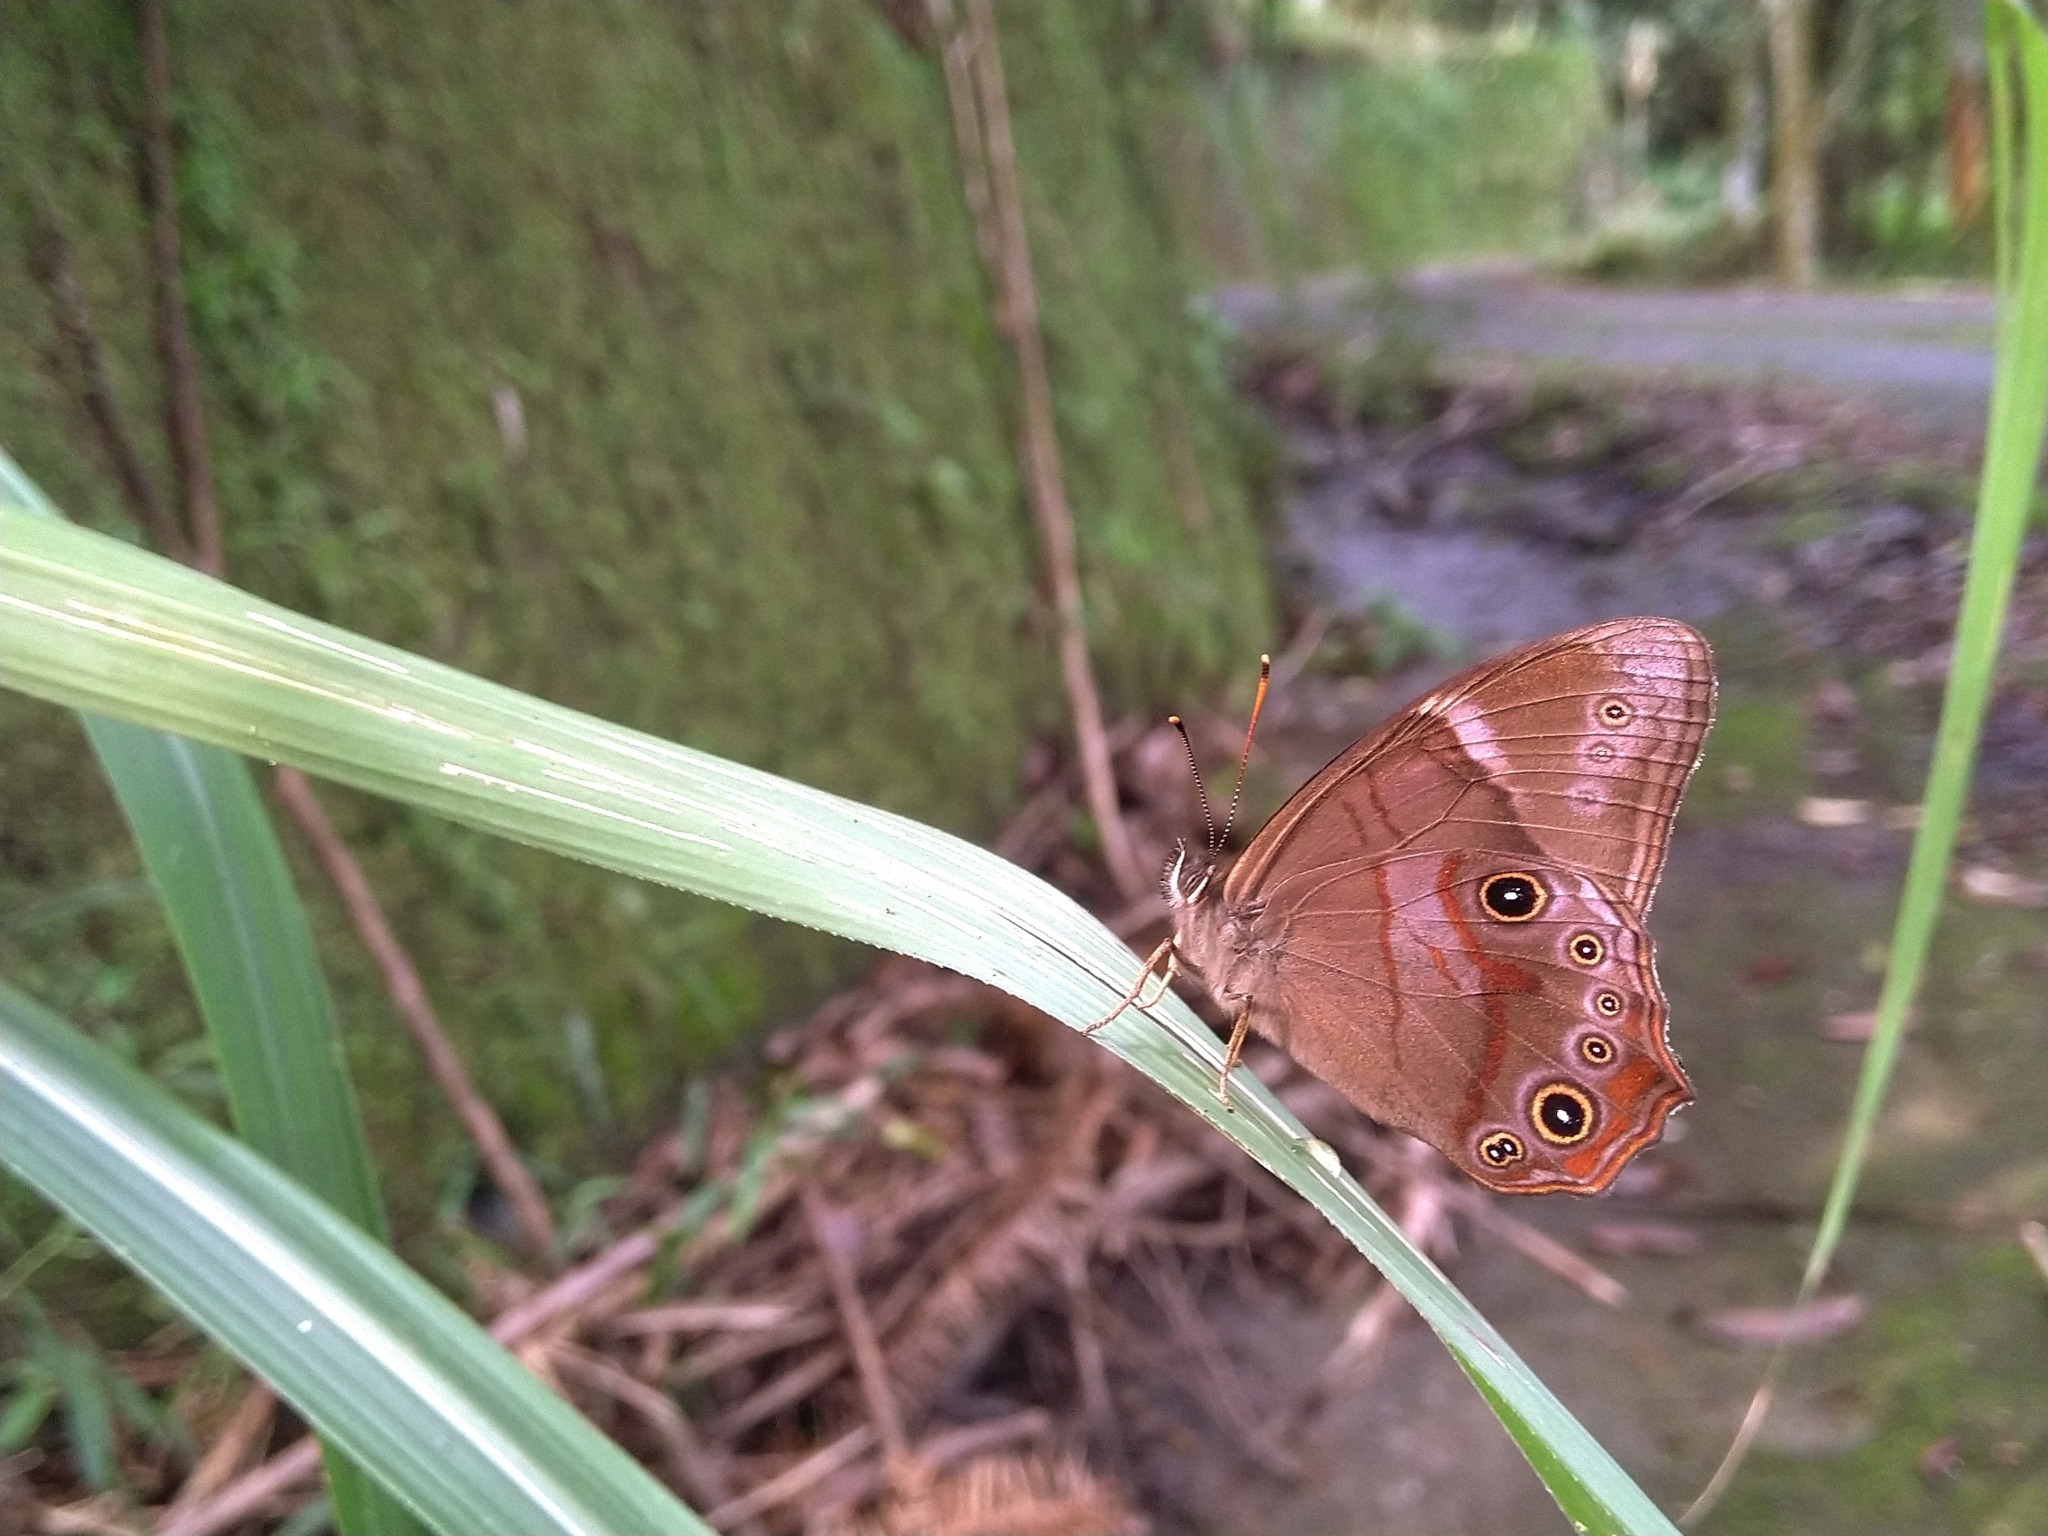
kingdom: Animalia
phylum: Arthropoda
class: Insecta
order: Lepidoptera
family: Nymphalidae
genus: Lethe
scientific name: Lethe hyrania
